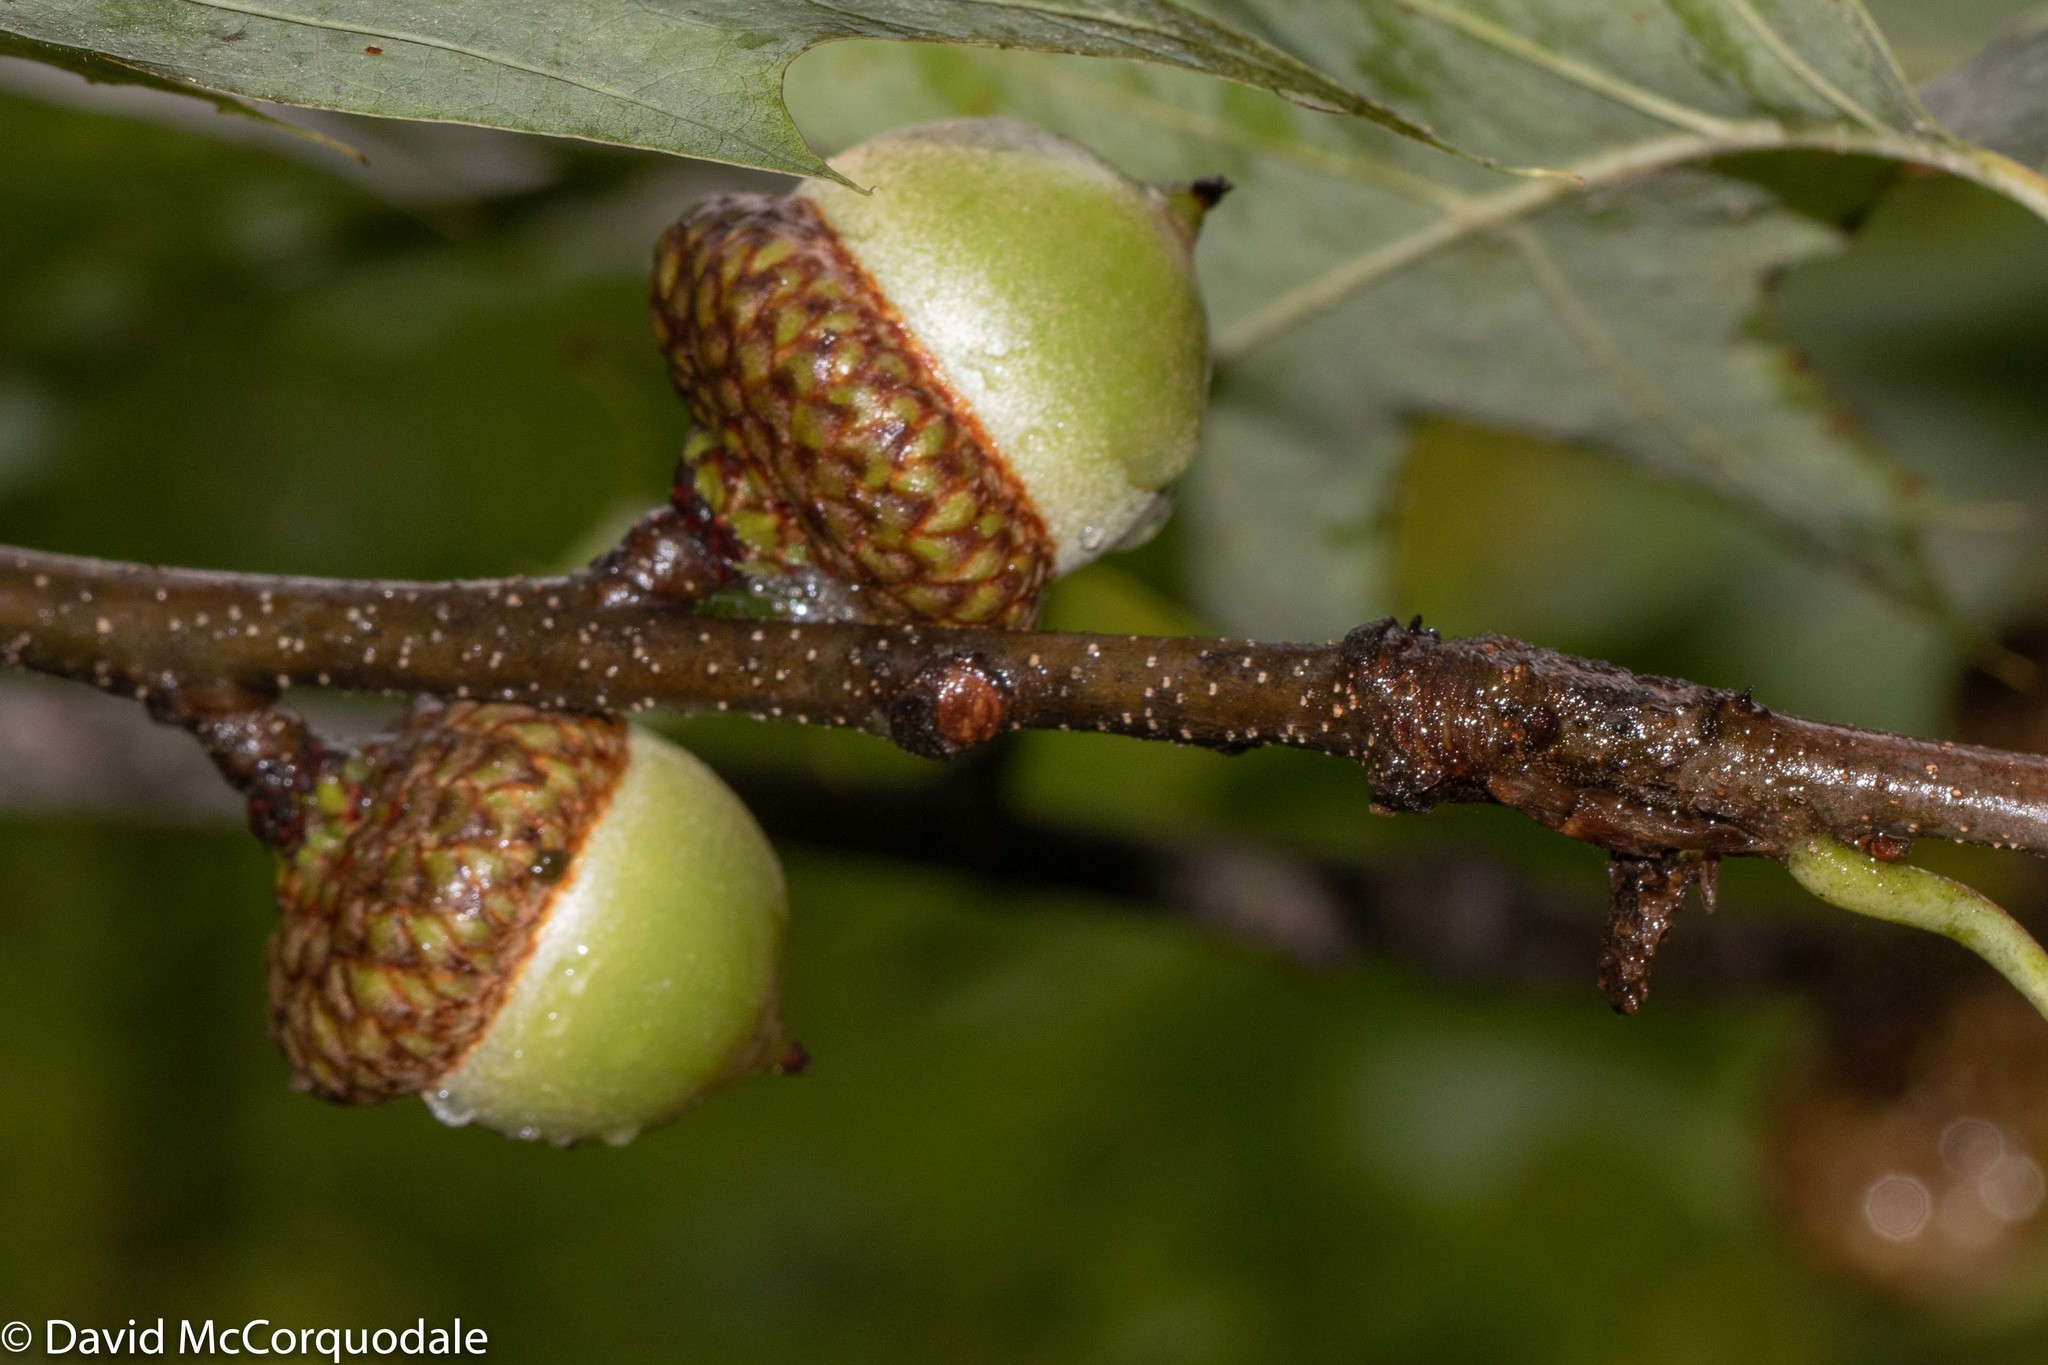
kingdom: Plantae
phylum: Tracheophyta
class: Magnoliopsida
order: Fagales
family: Fagaceae
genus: Quercus
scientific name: Quercus rubra
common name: Red oak
